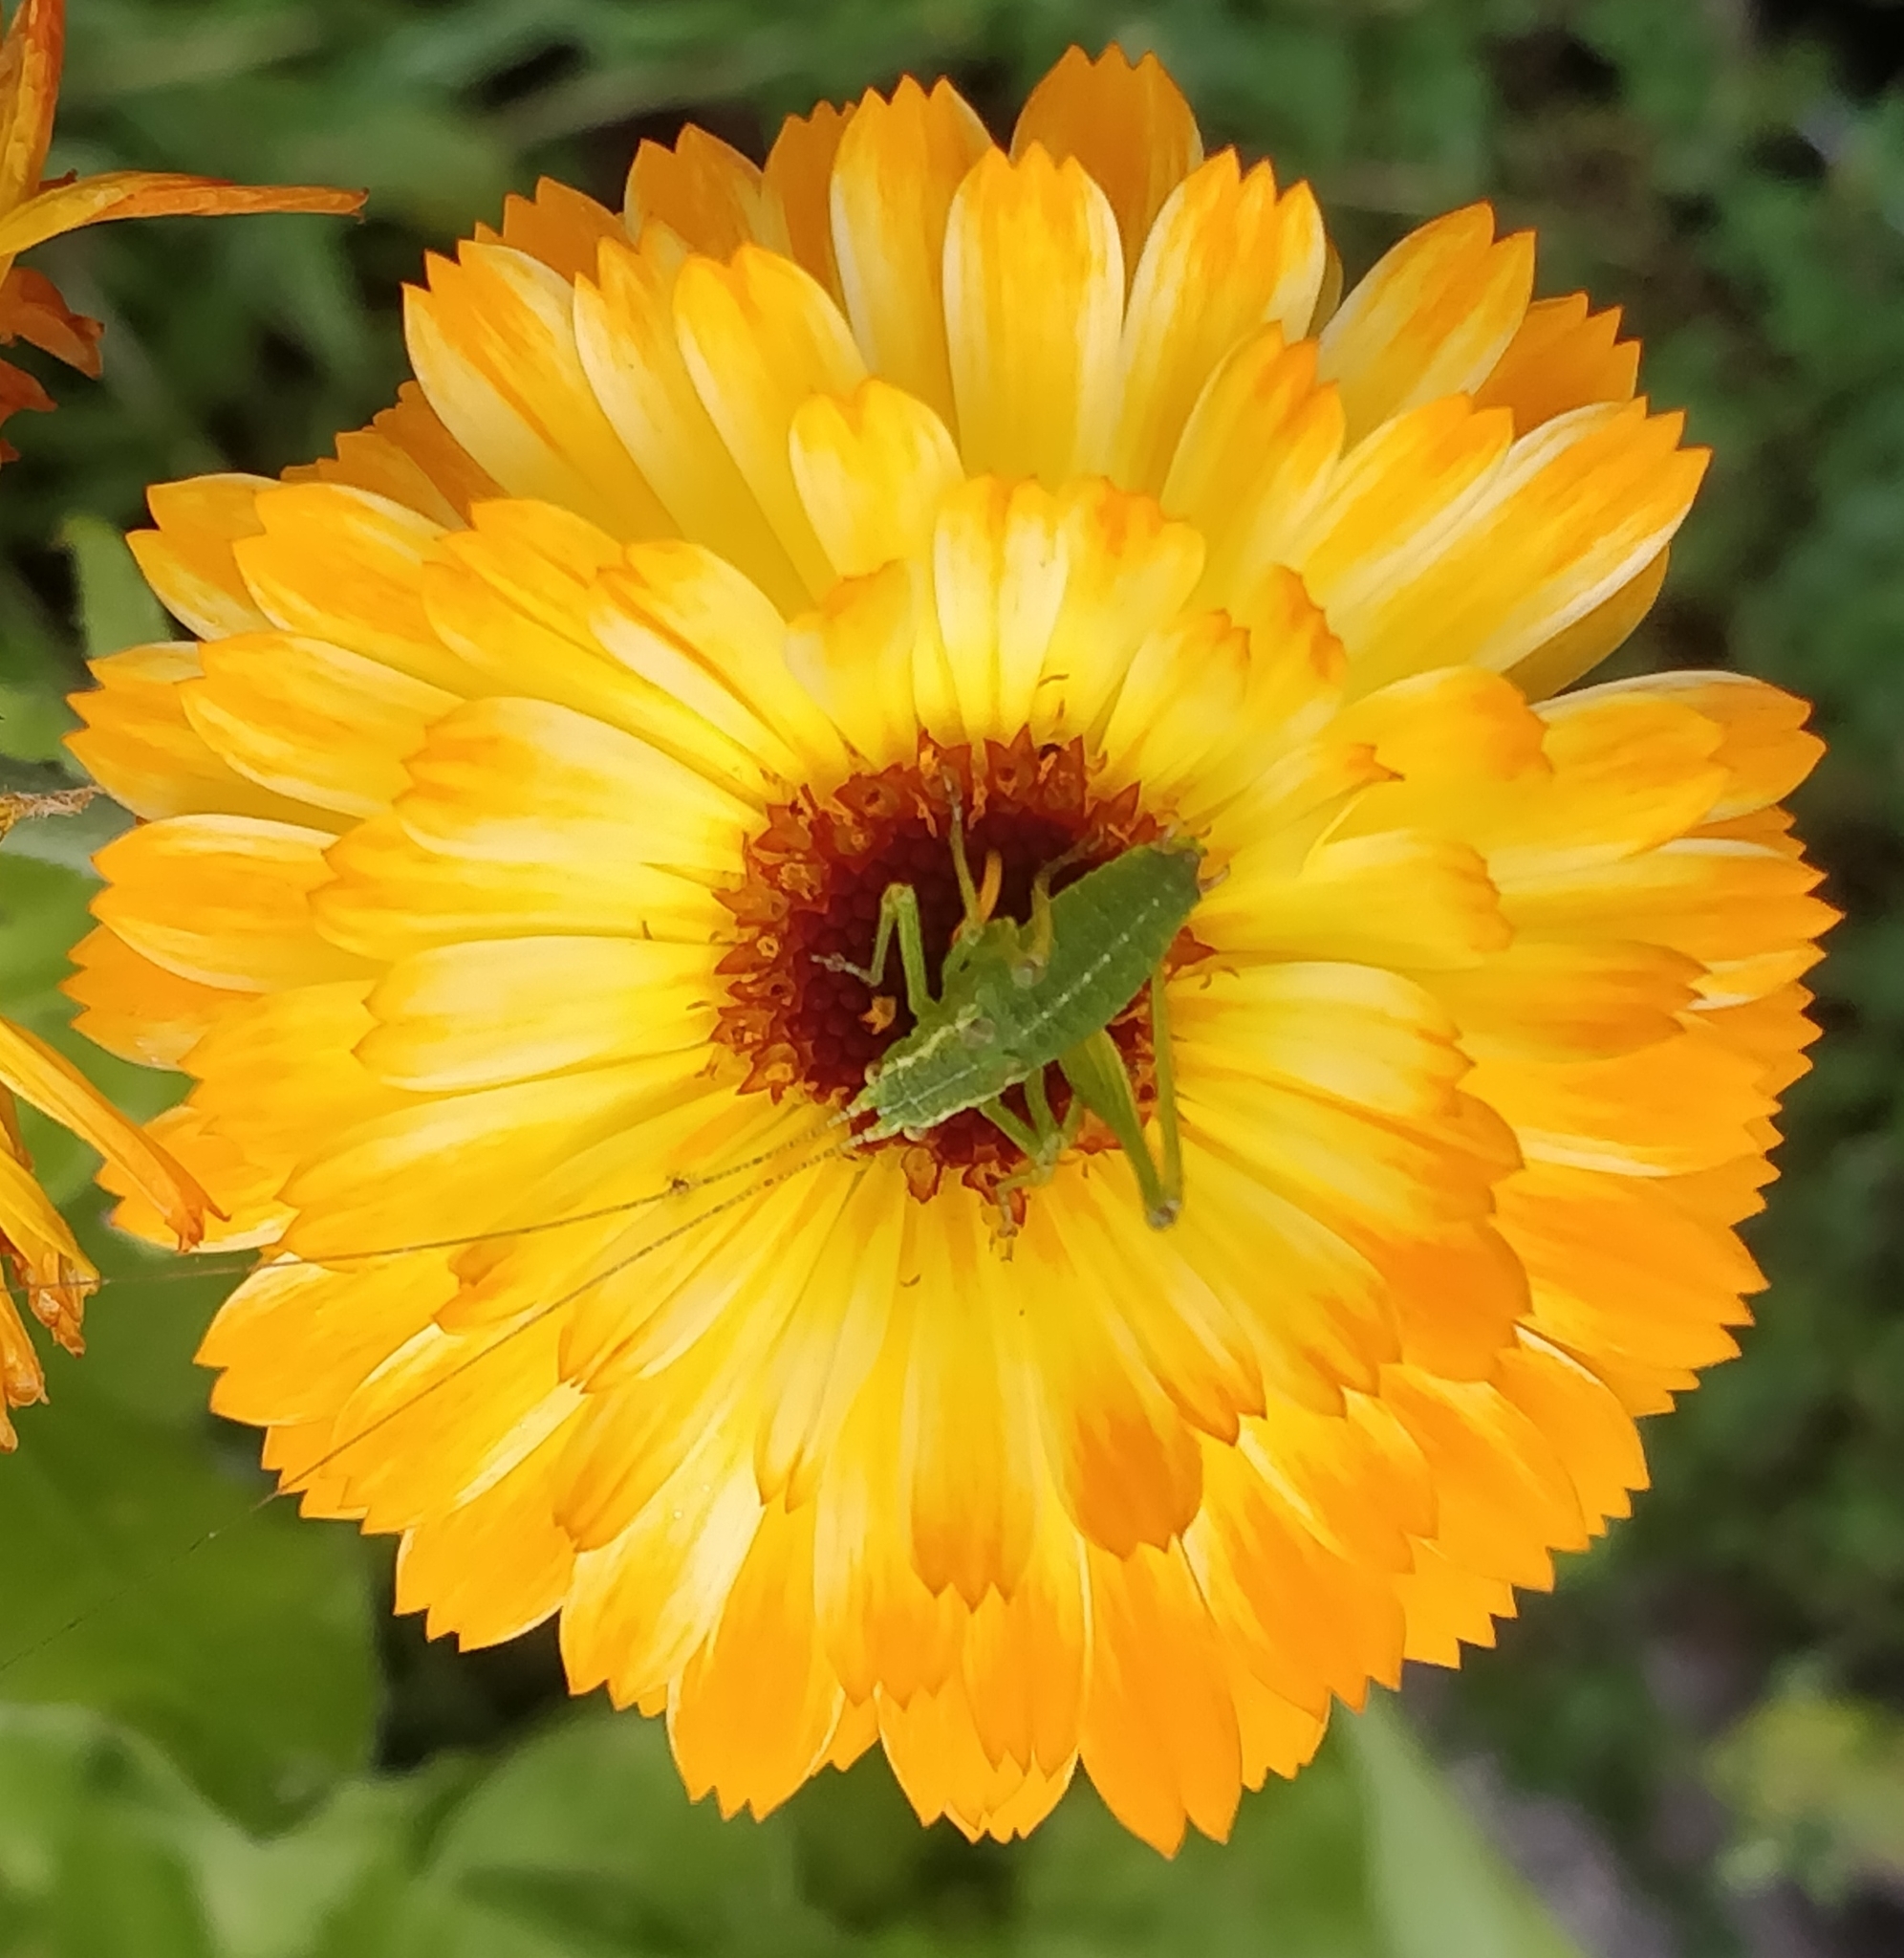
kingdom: Animalia
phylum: Arthropoda
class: Insecta
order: Orthoptera
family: Tettigoniidae
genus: Leptophyes
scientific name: Leptophyes punctatissima
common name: Speckled bush-cricket
